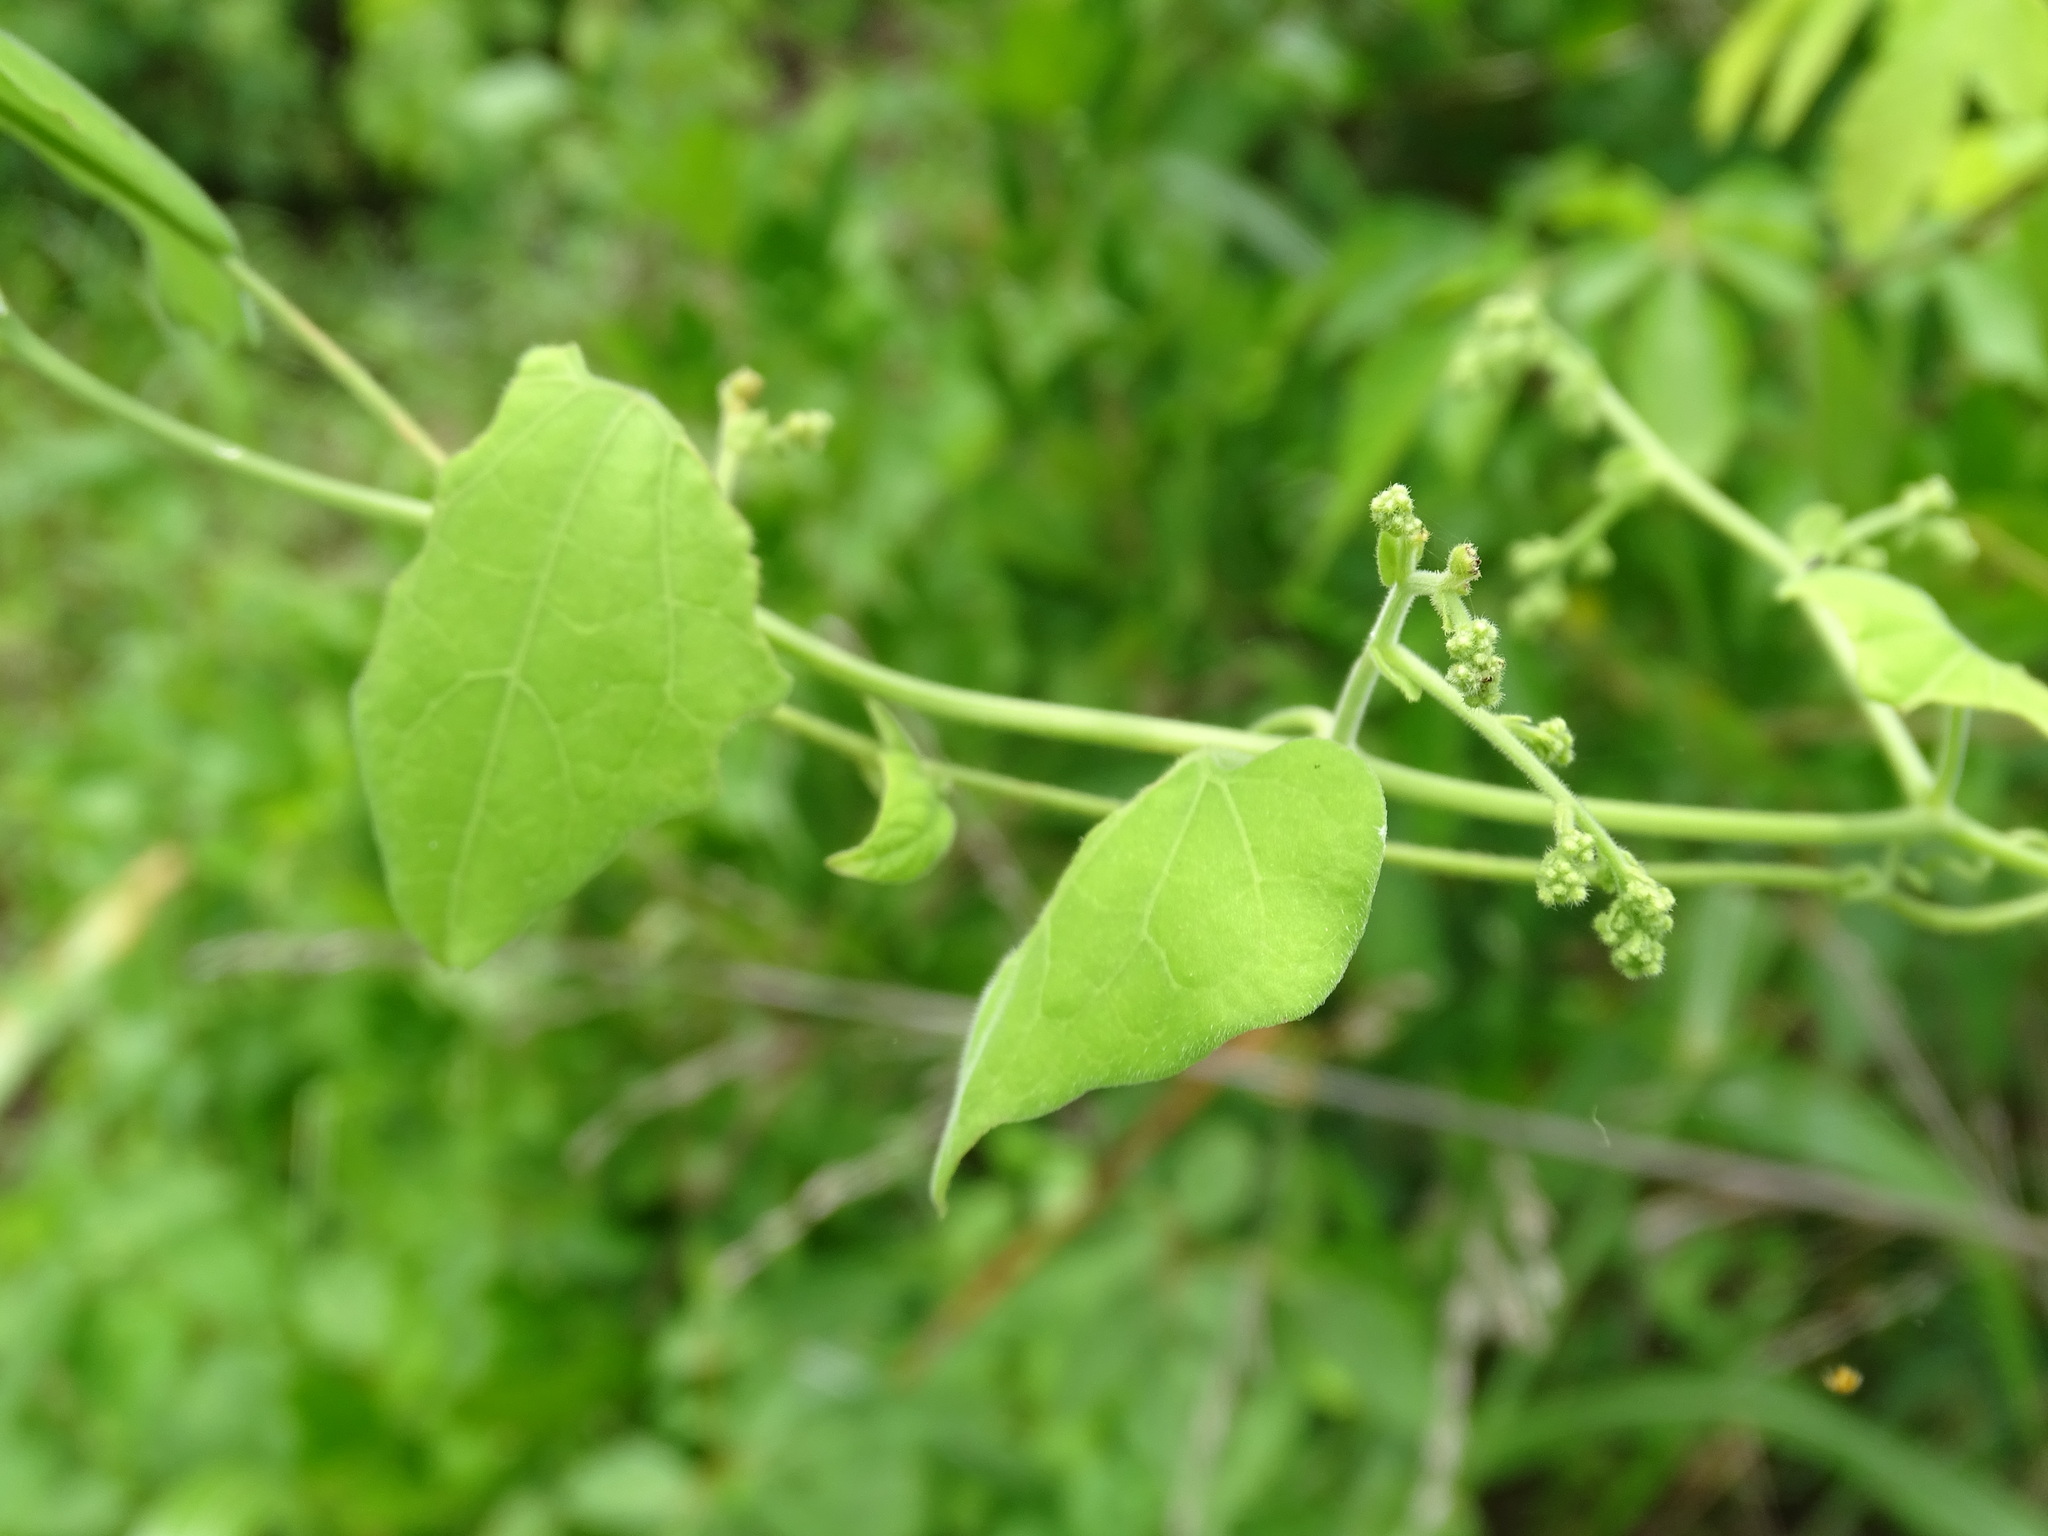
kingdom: Plantae
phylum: Tracheophyta
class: Magnoliopsida
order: Cucurbitales
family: Cucurbitaceae
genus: Sicydium
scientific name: Sicydium tamnifolium
